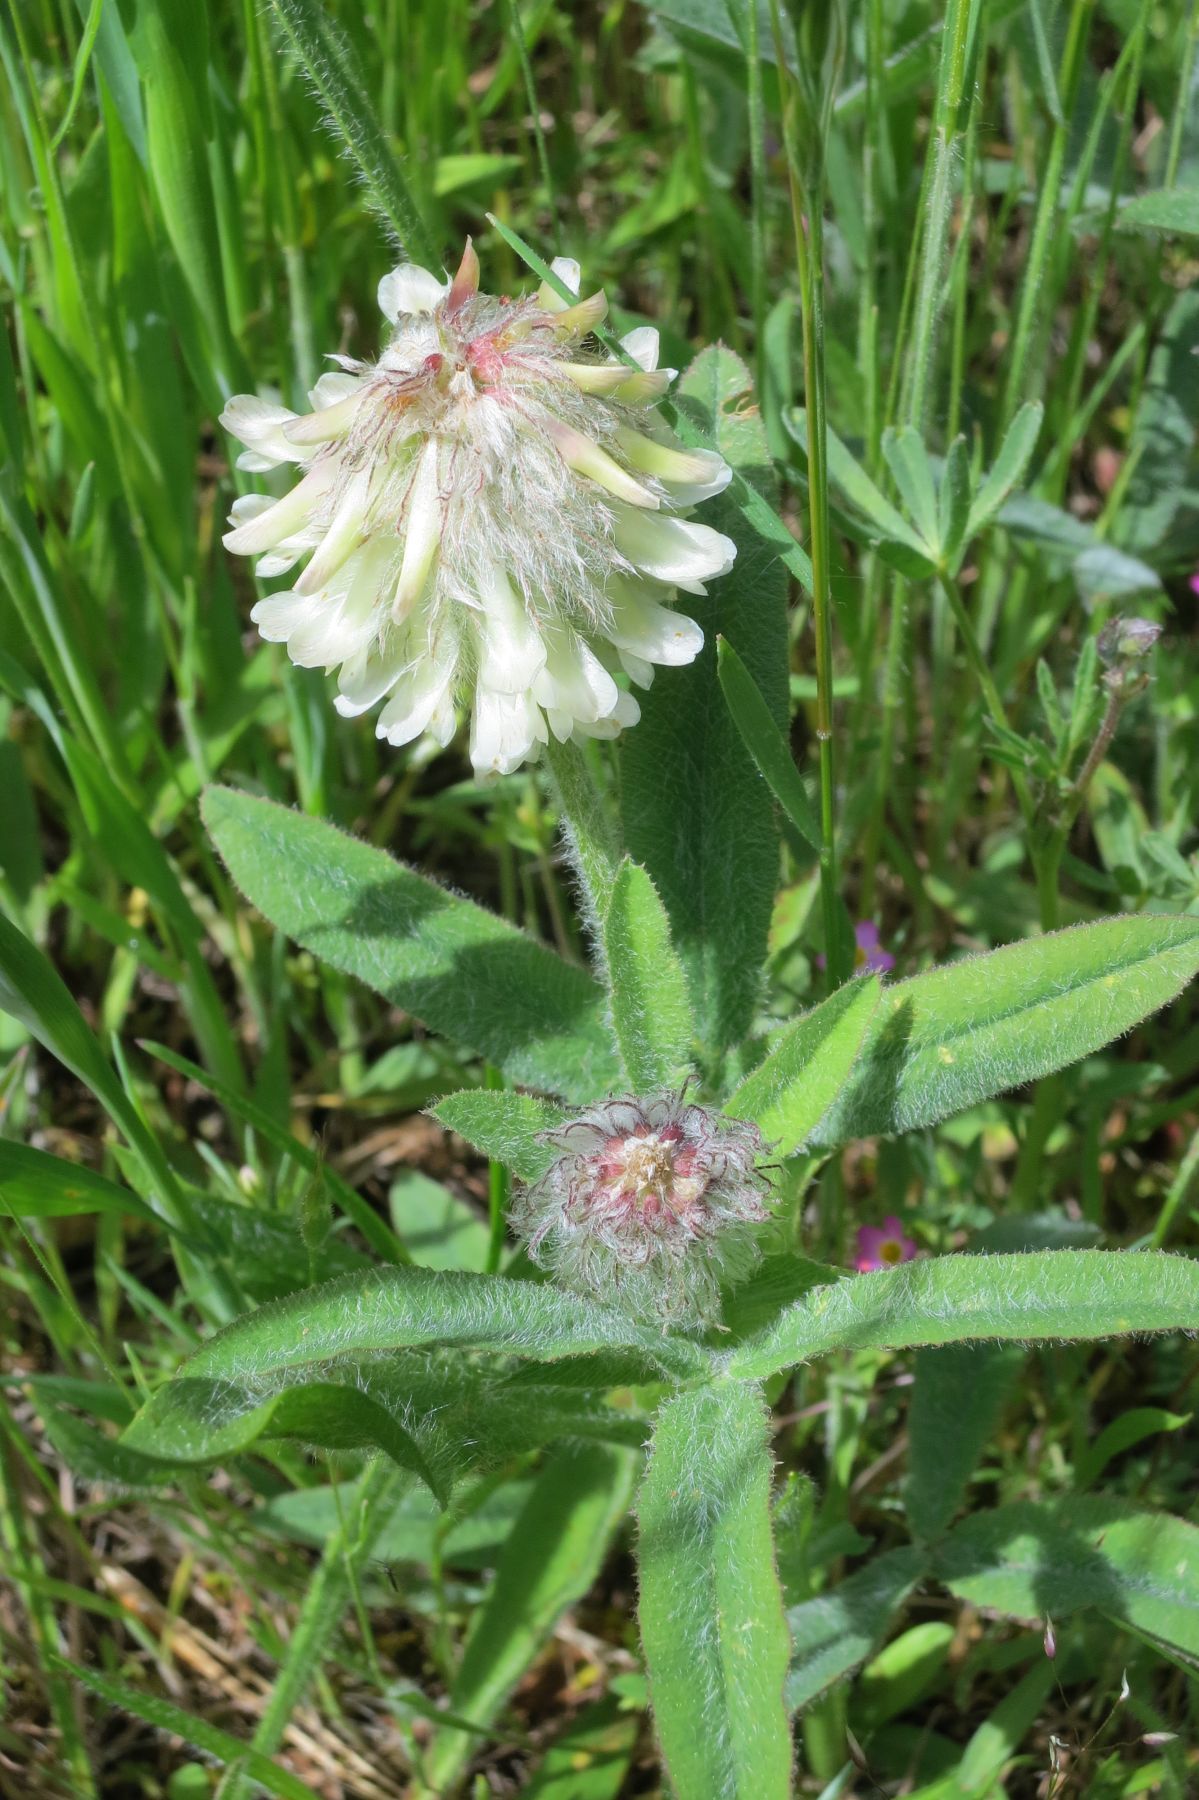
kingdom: Plantae
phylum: Tracheophyta
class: Magnoliopsida
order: Fabales
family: Fabaceae
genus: Trifolium
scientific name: Trifolium eriocephalum
